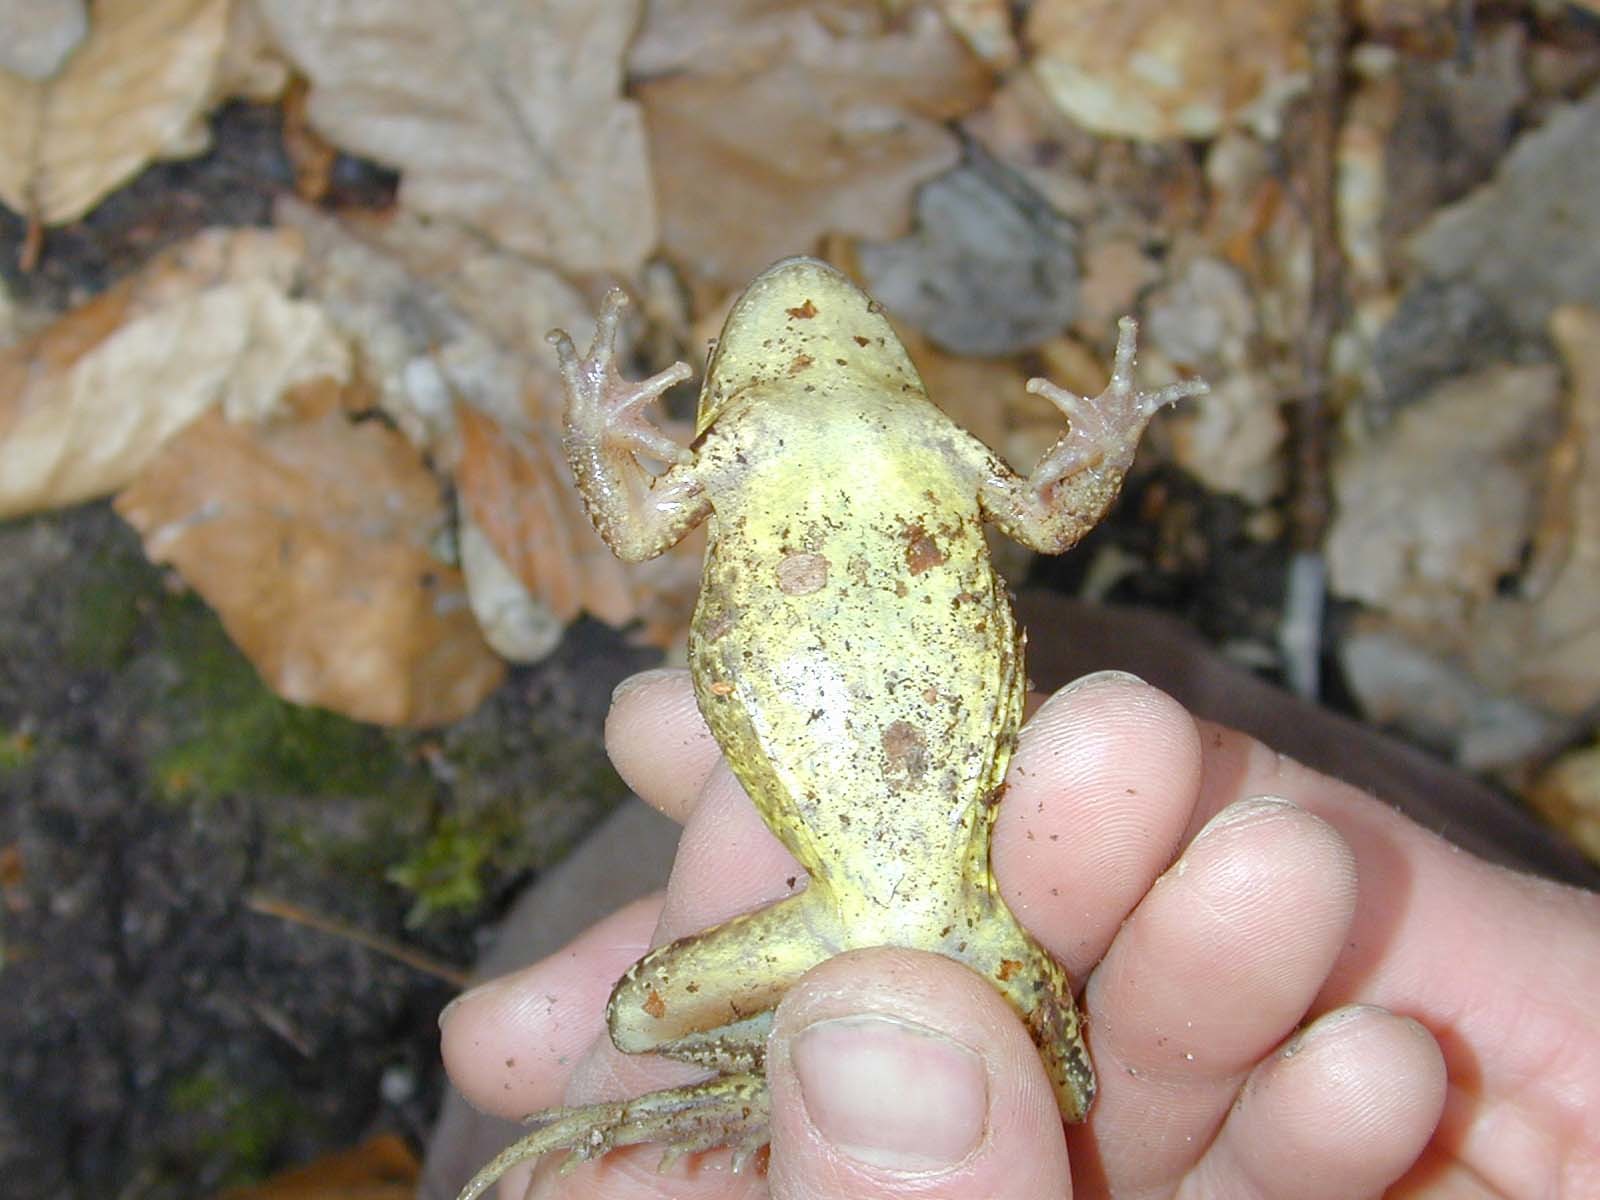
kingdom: Animalia
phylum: Chordata
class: Amphibia
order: Anura
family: Ranidae
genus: Rana
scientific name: Rana temporaria
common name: Common frog
